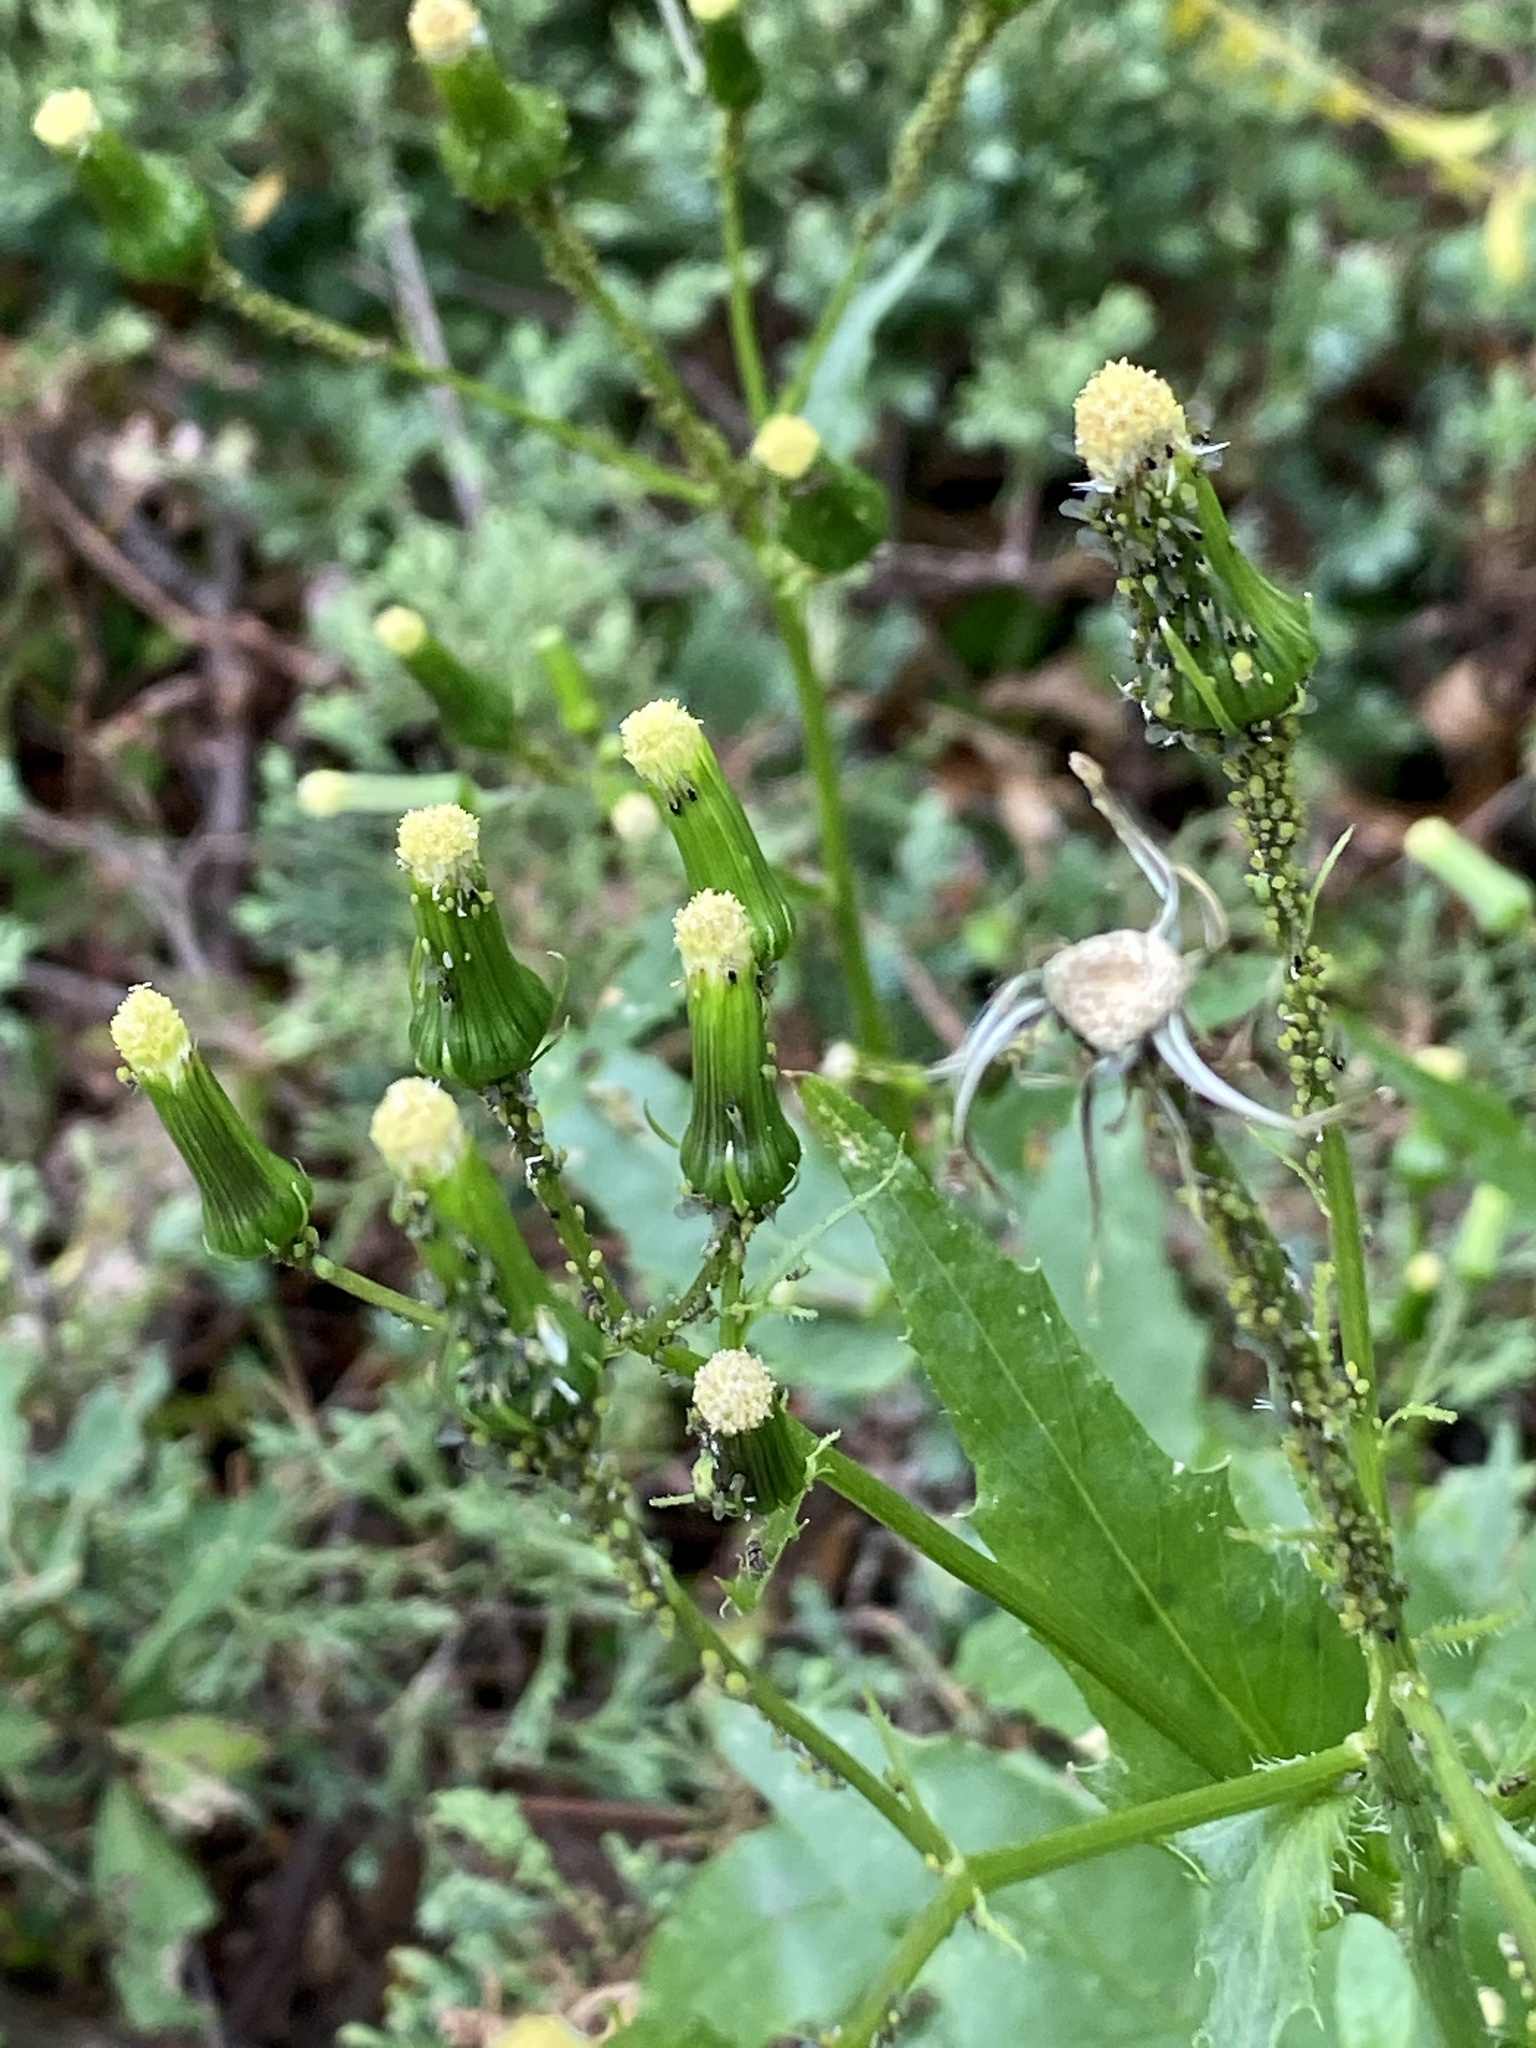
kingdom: Plantae
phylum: Tracheophyta
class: Magnoliopsida
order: Asterales
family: Asteraceae
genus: Erechtites
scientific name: Erechtites hieraciifolius
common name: American burnweed
